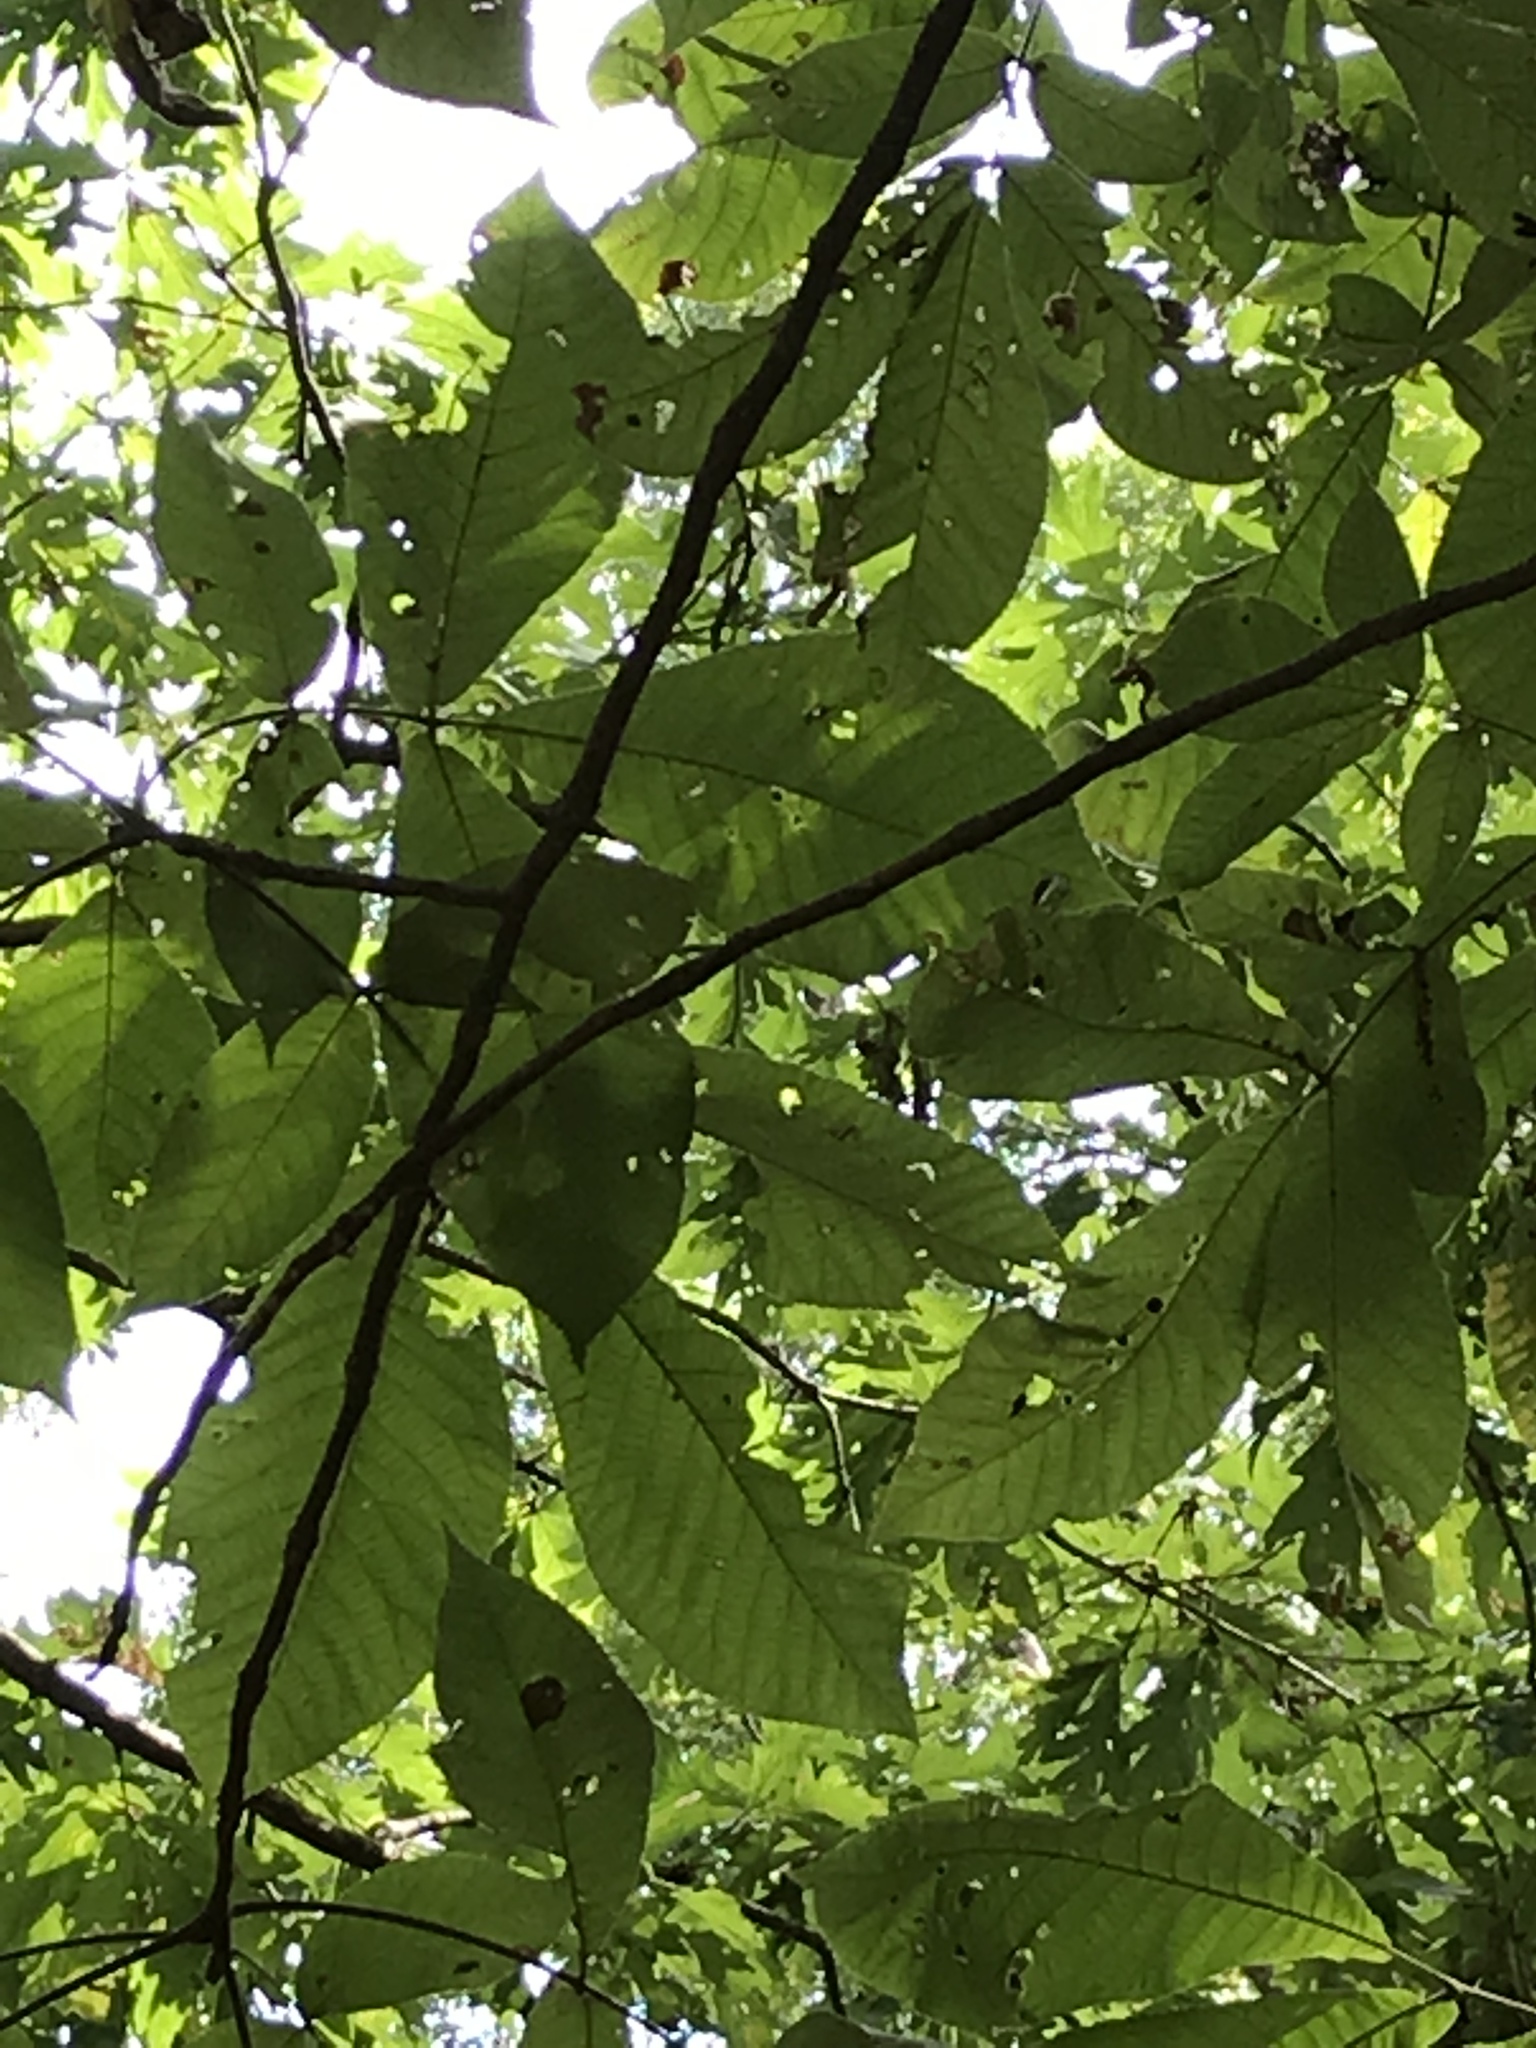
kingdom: Plantae
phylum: Tracheophyta
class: Magnoliopsida
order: Fagales
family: Juglandaceae
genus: Carya
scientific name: Carya ovata
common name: Shagbark hickory
